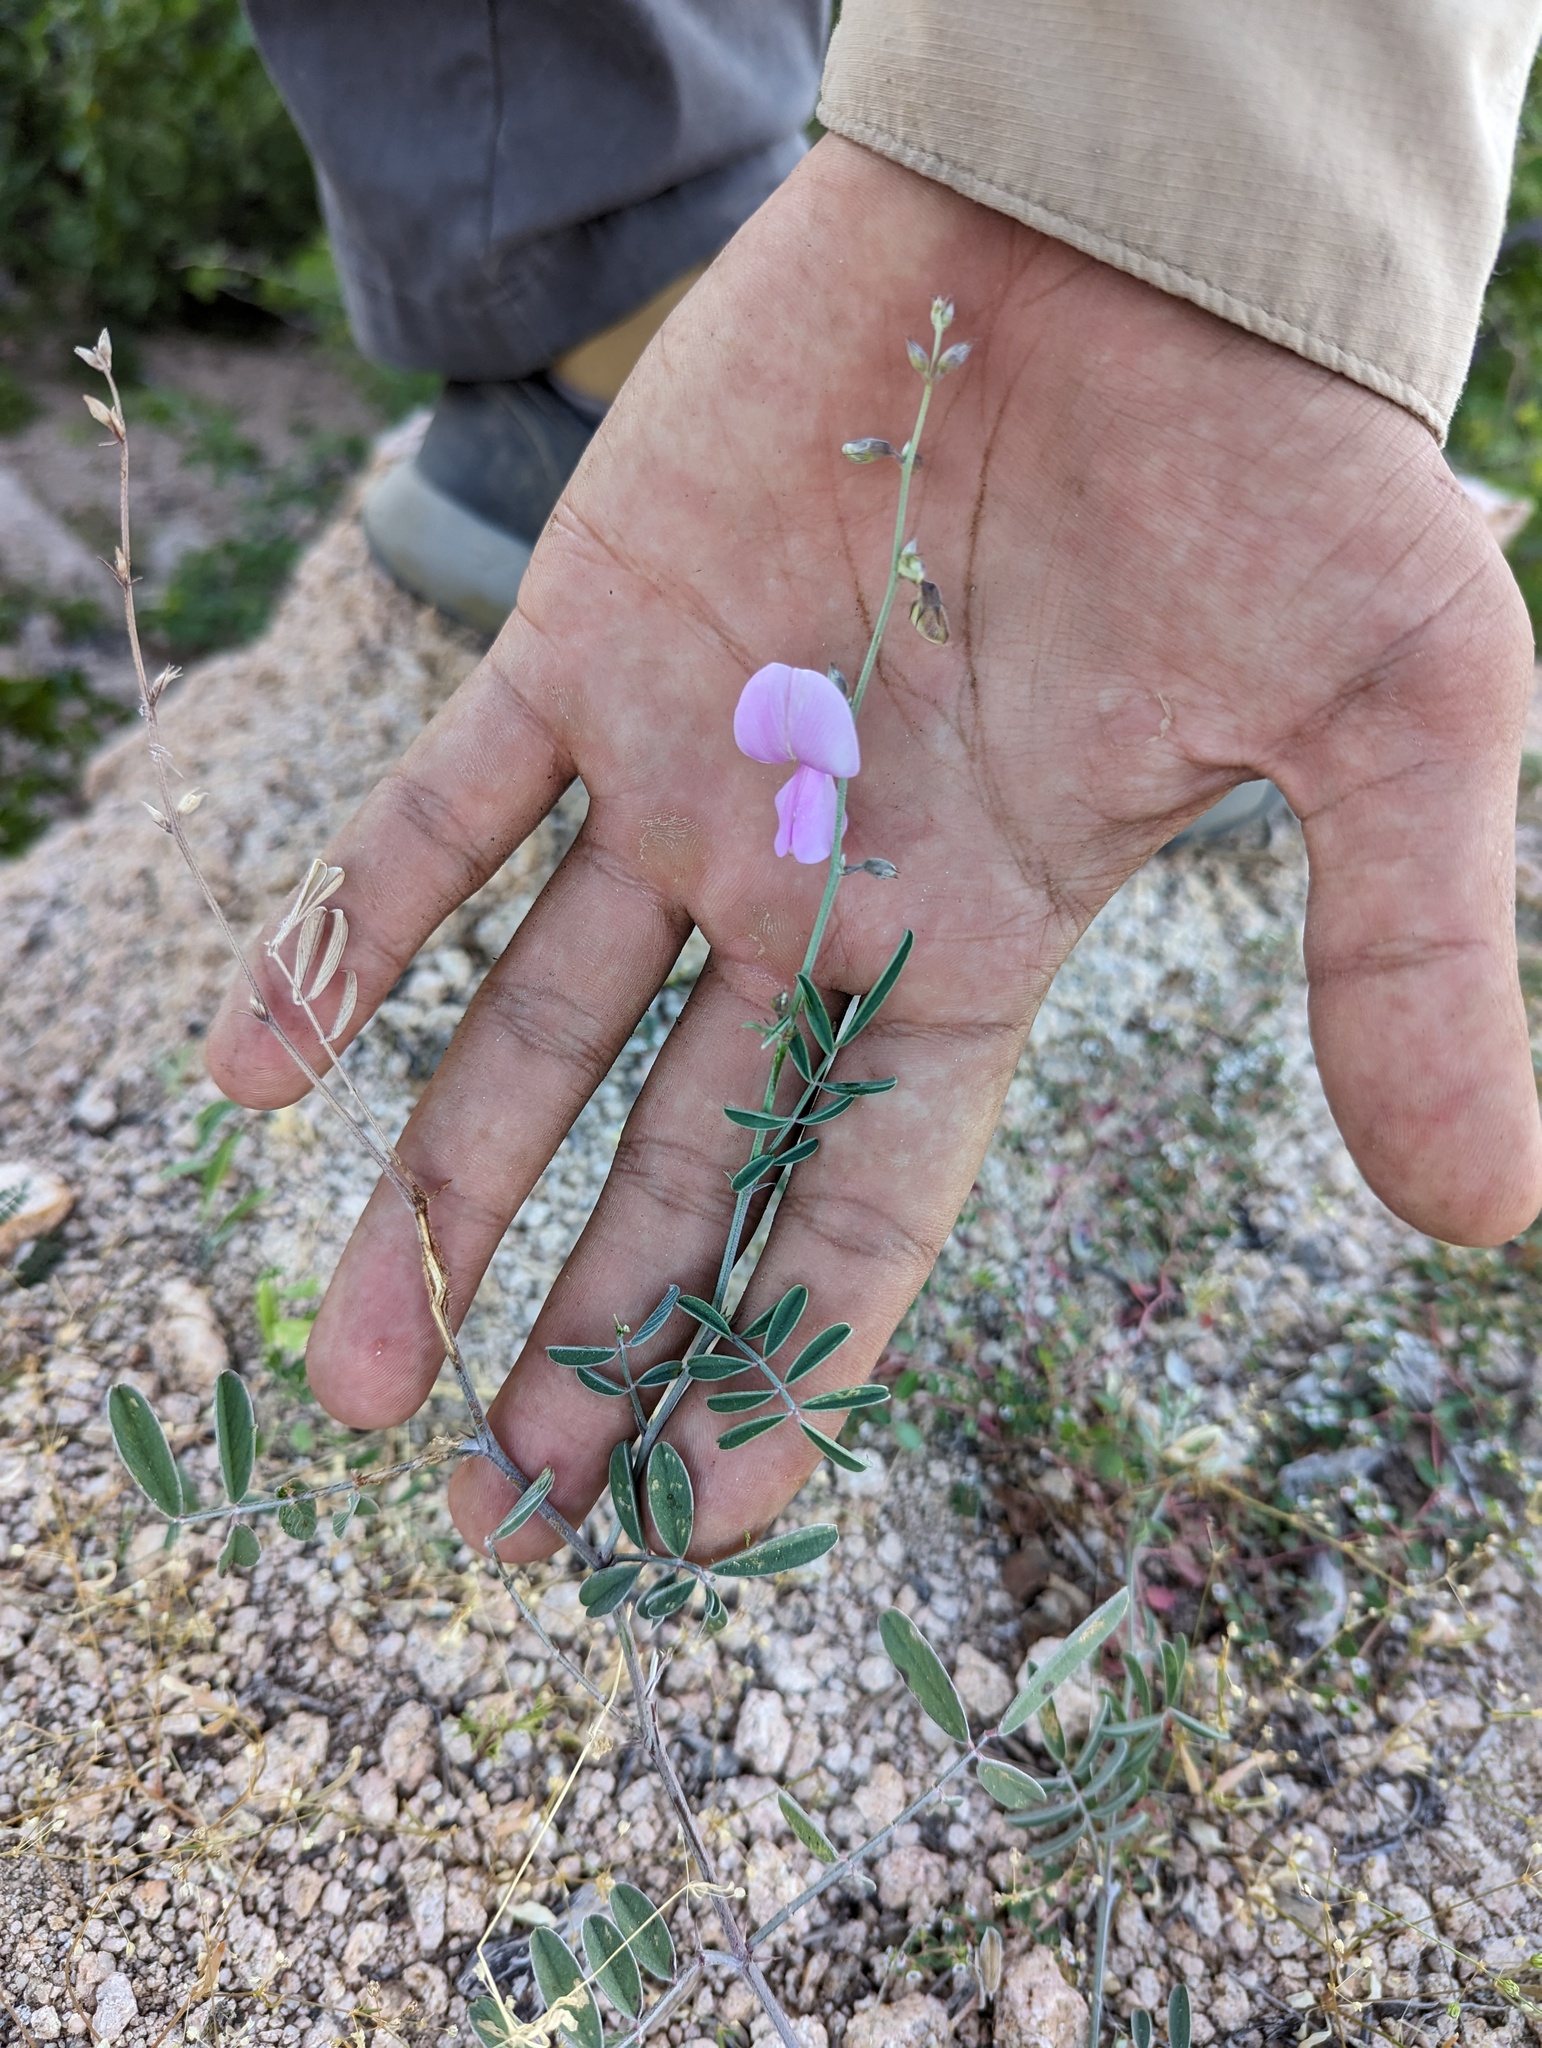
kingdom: Plantae
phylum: Tracheophyta
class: Magnoliopsida
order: Fabales
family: Fabaceae
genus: Tephrosia
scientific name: Tephrosia cana
